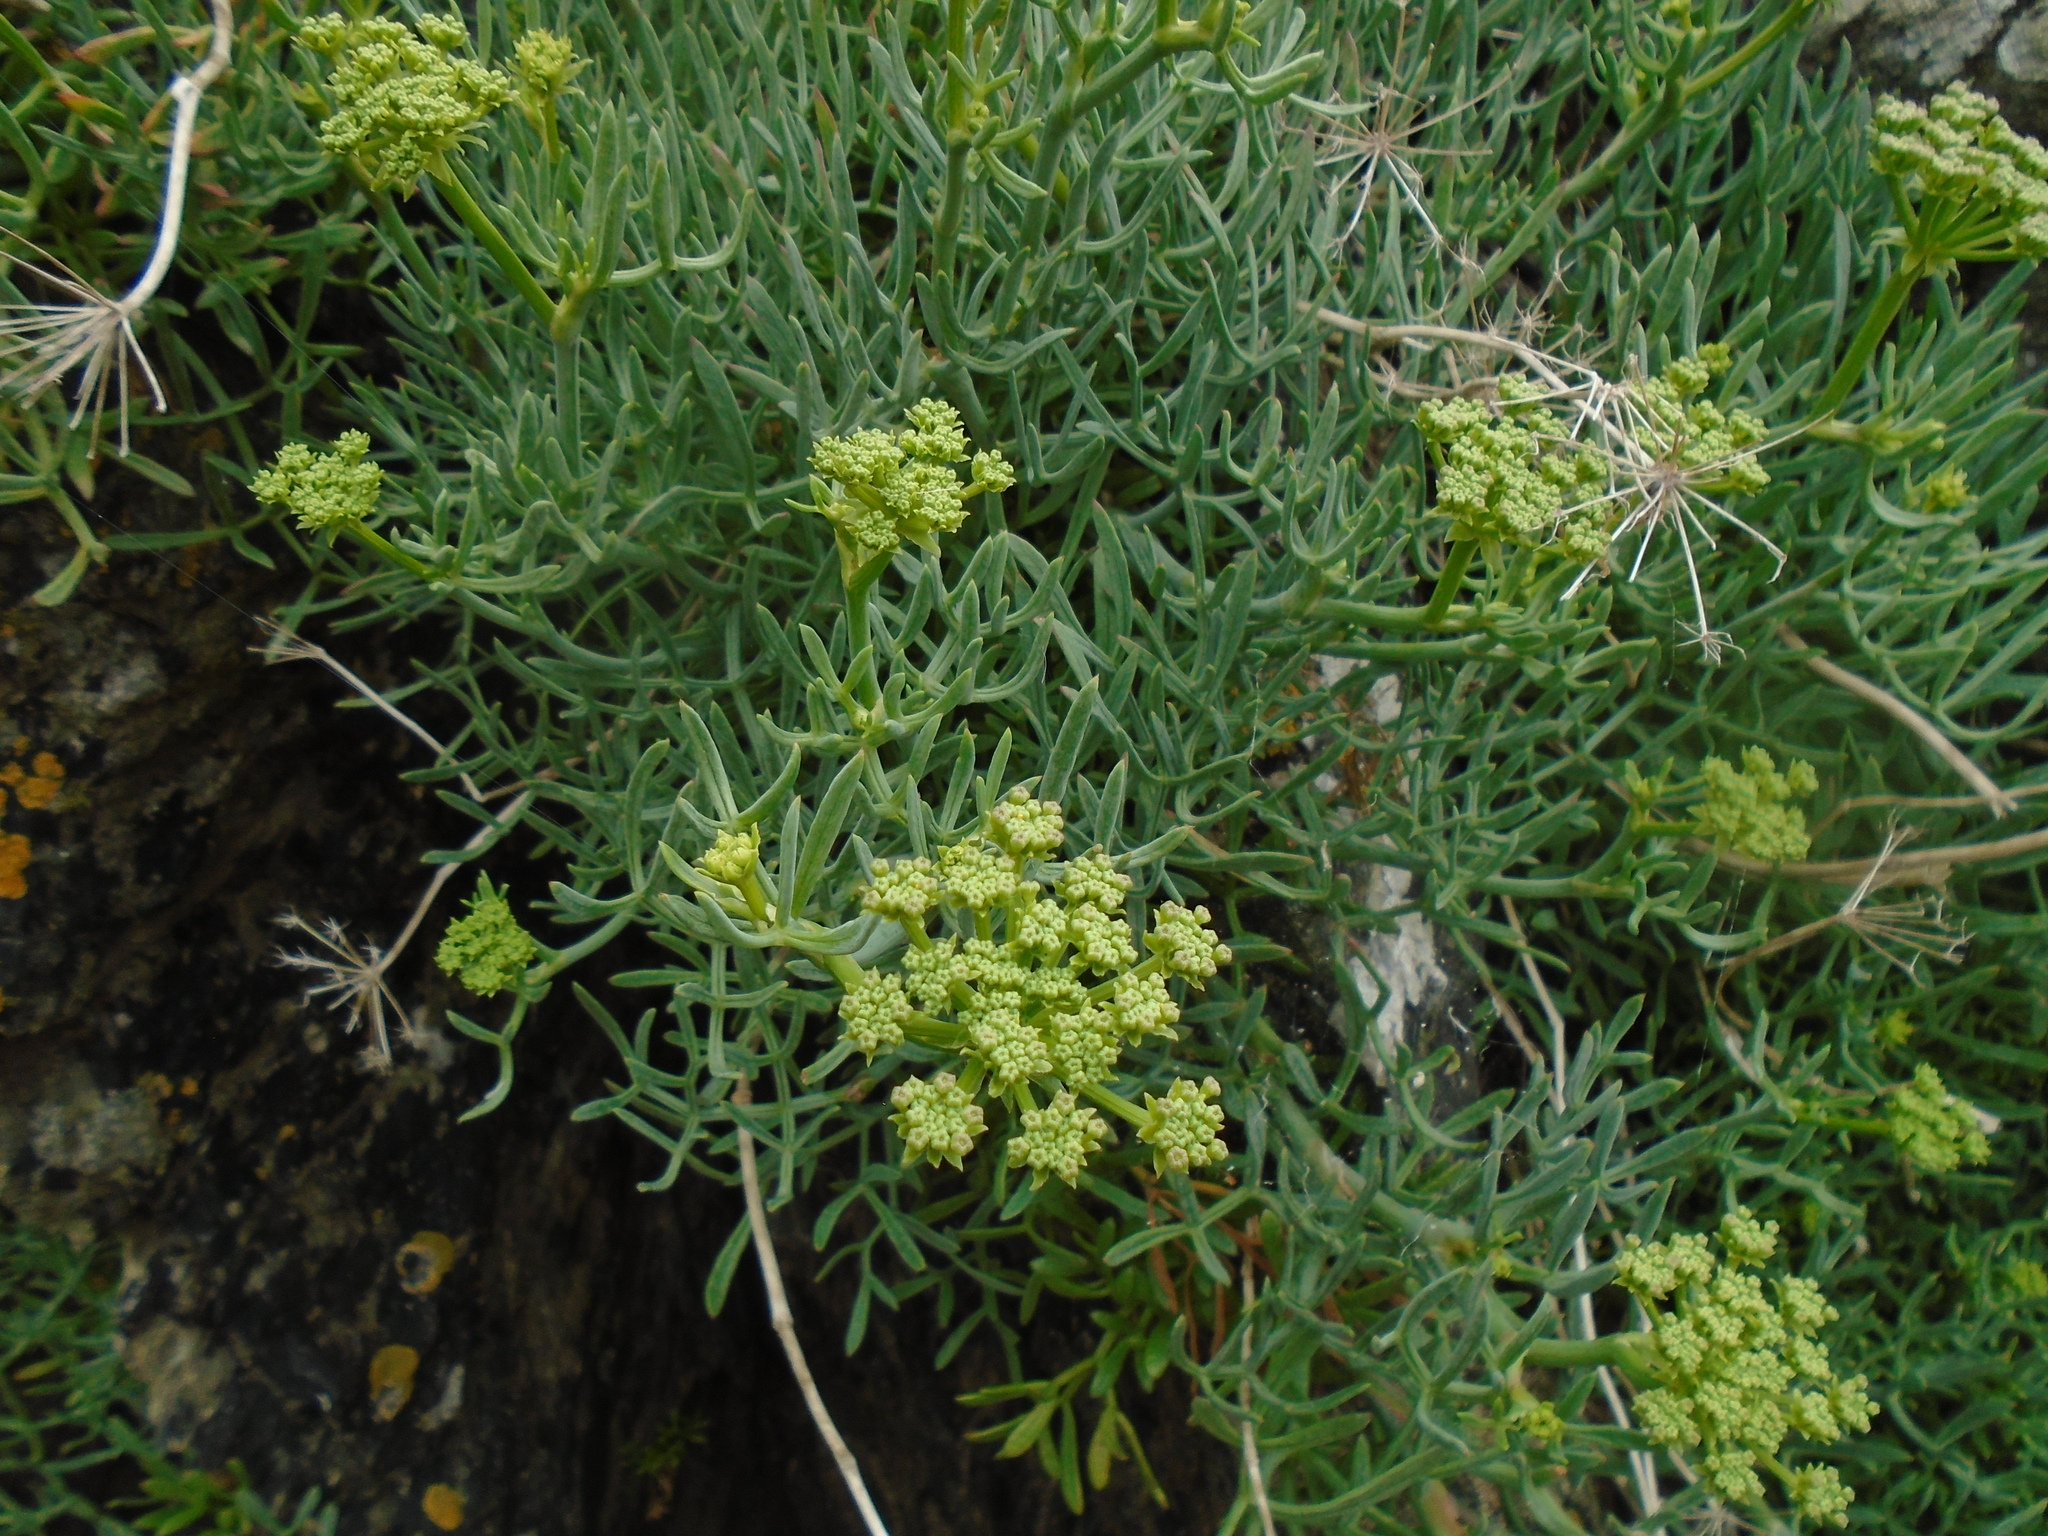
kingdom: Plantae
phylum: Tracheophyta
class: Magnoliopsida
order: Apiales
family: Apiaceae
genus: Crithmum
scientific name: Crithmum maritimum
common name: Rock samphire
